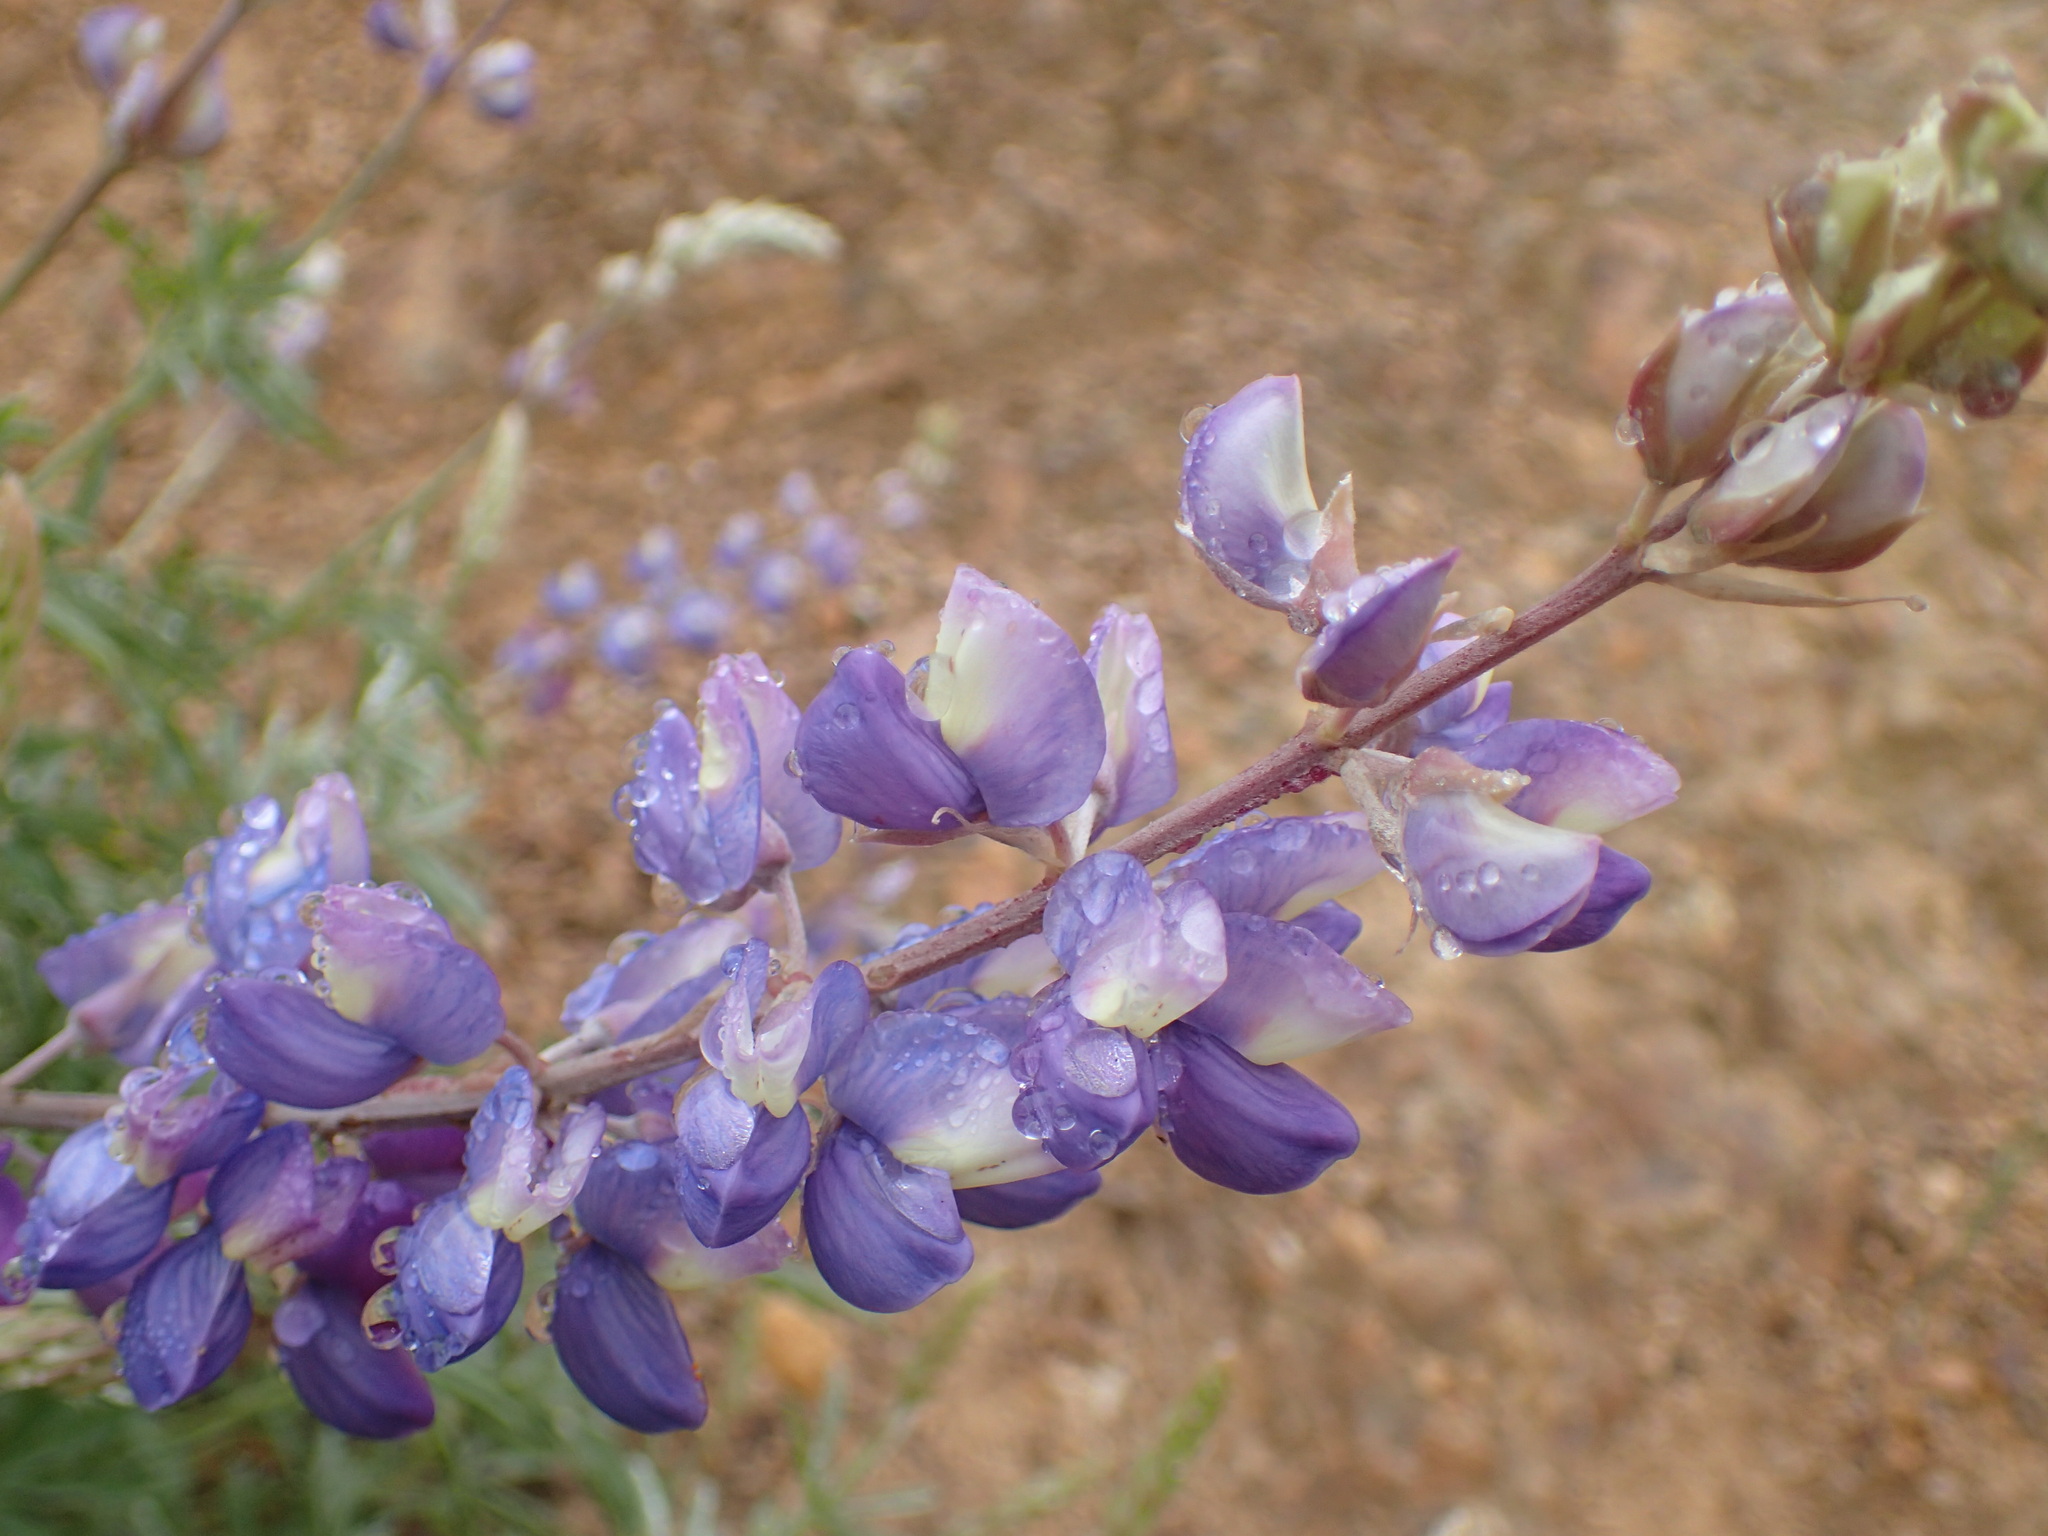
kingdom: Plantae
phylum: Tracheophyta
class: Magnoliopsida
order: Fabales
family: Fabaceae
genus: Lupinus
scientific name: Lupinus albifrons
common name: Foothill lupine
